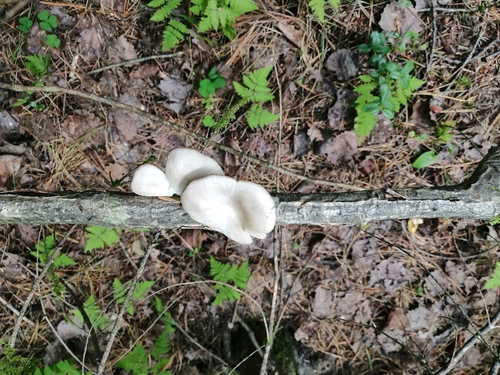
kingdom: Fungi
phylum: Basidiomycota
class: Agaricomycetes
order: Agaricales
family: Pleurotaceae
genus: Pleurotus
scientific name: Pleurotus ostreatus
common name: Oyster mushroom
